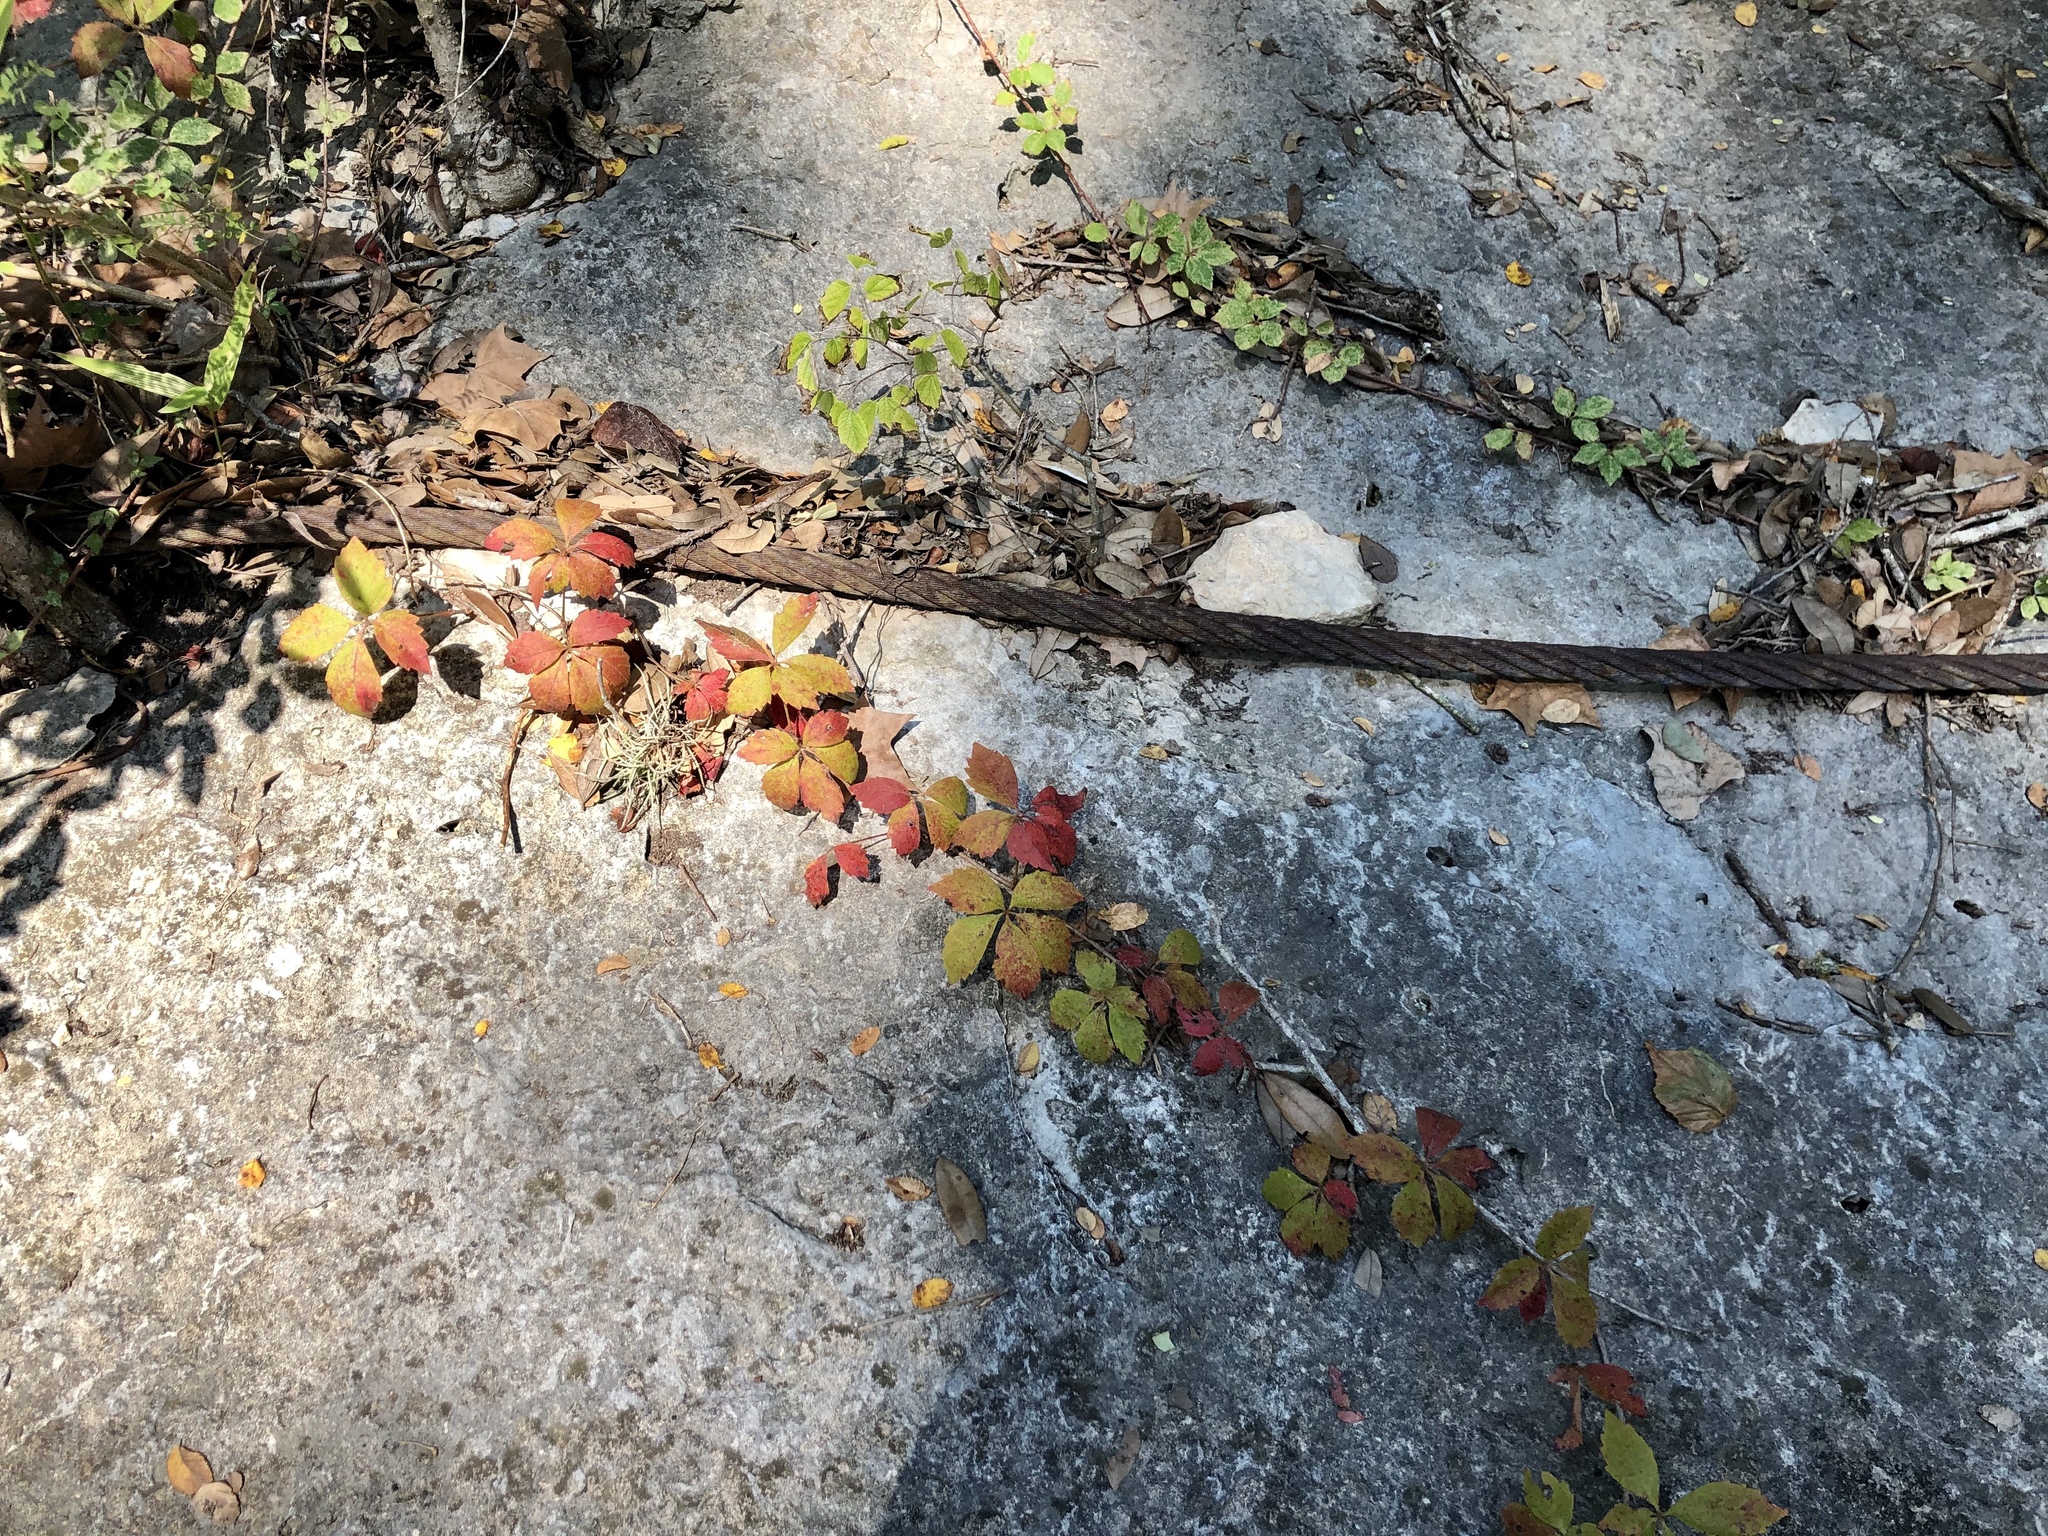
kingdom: Plantae
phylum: Tracheophyta
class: Magnoliopsida
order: Vitales
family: Vitaceae
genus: Parthenocissus
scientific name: Parthenocissus quinquefolia
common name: Virginia-creeper
